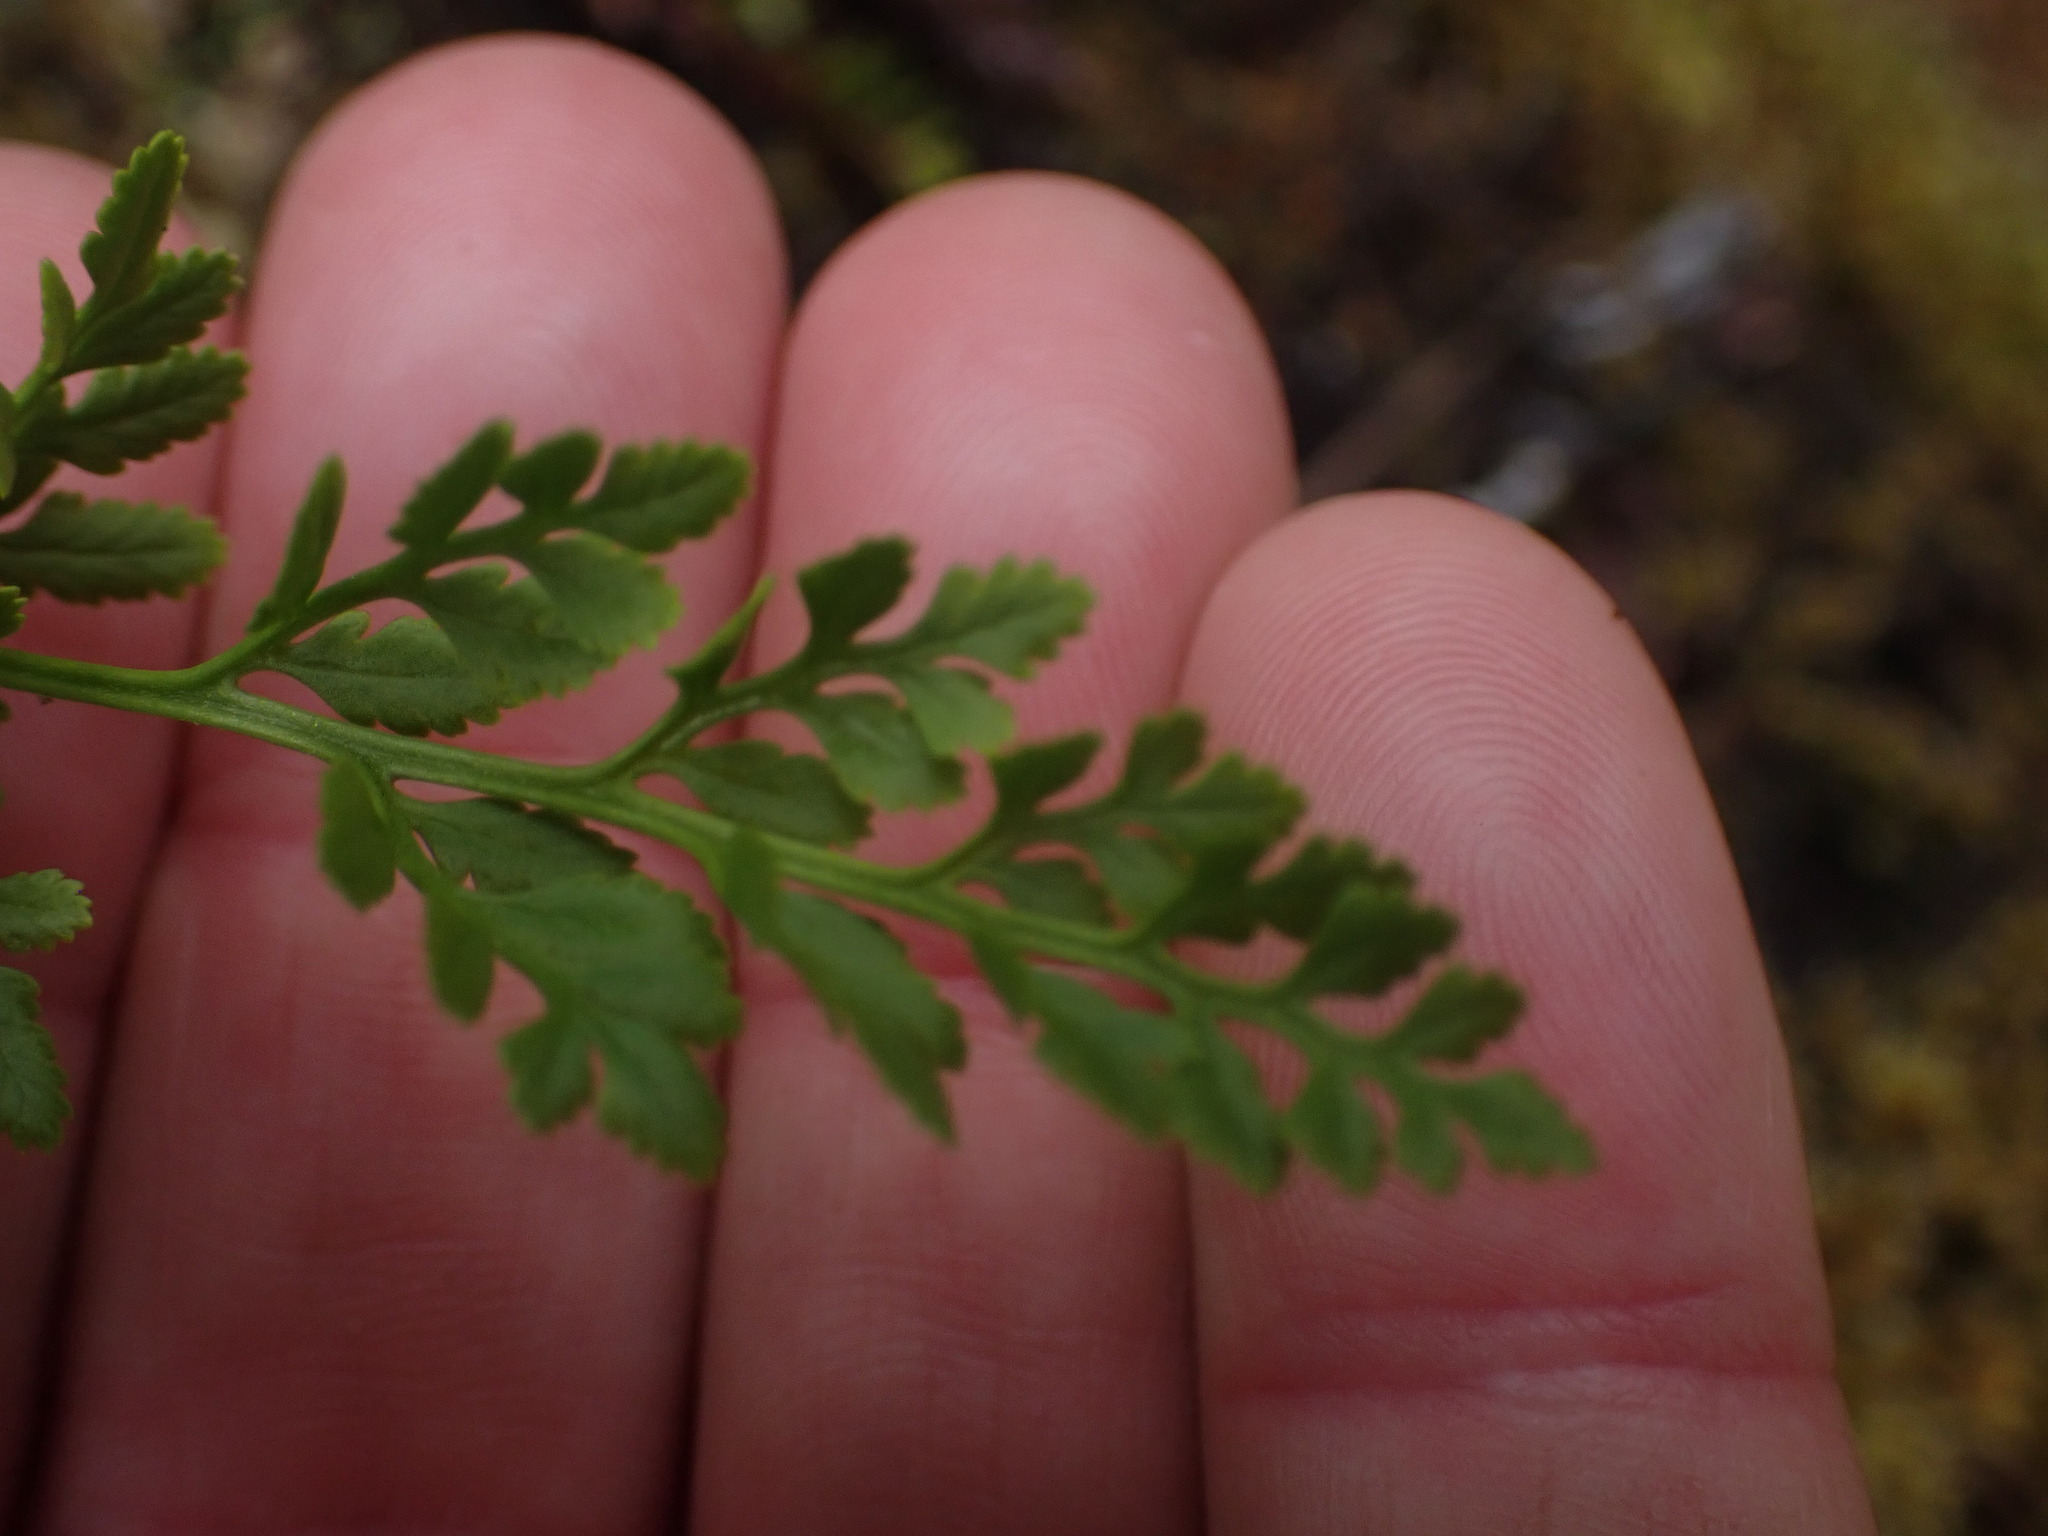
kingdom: Plantae
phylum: Tracheophyta
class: Polypodiopsida
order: Polypodiales
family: Pteridaceae
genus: Cryptogramma
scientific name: Cryptogramma acrostichoides
